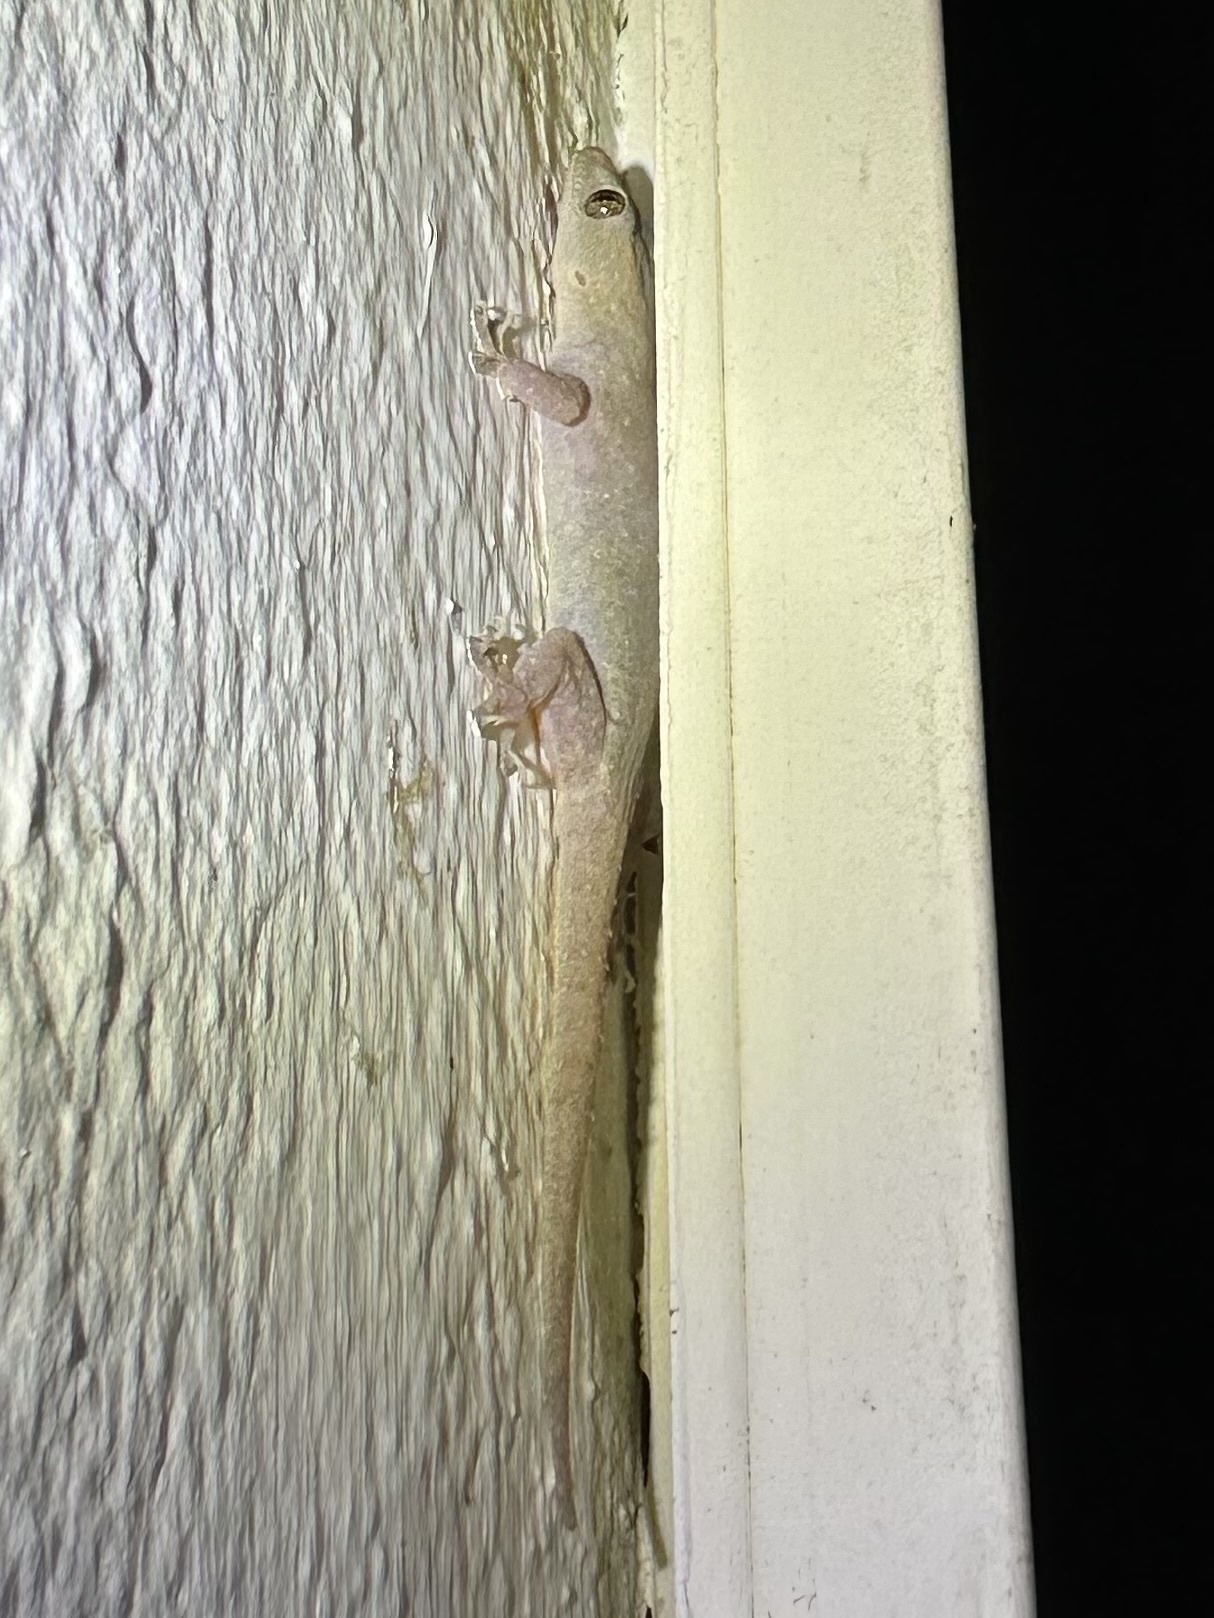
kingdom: Animalia
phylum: Chordata
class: Squamata
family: Gekkonidae
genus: Hemidactylus
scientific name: Hemidactylus frenatus
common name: Common house gecko
